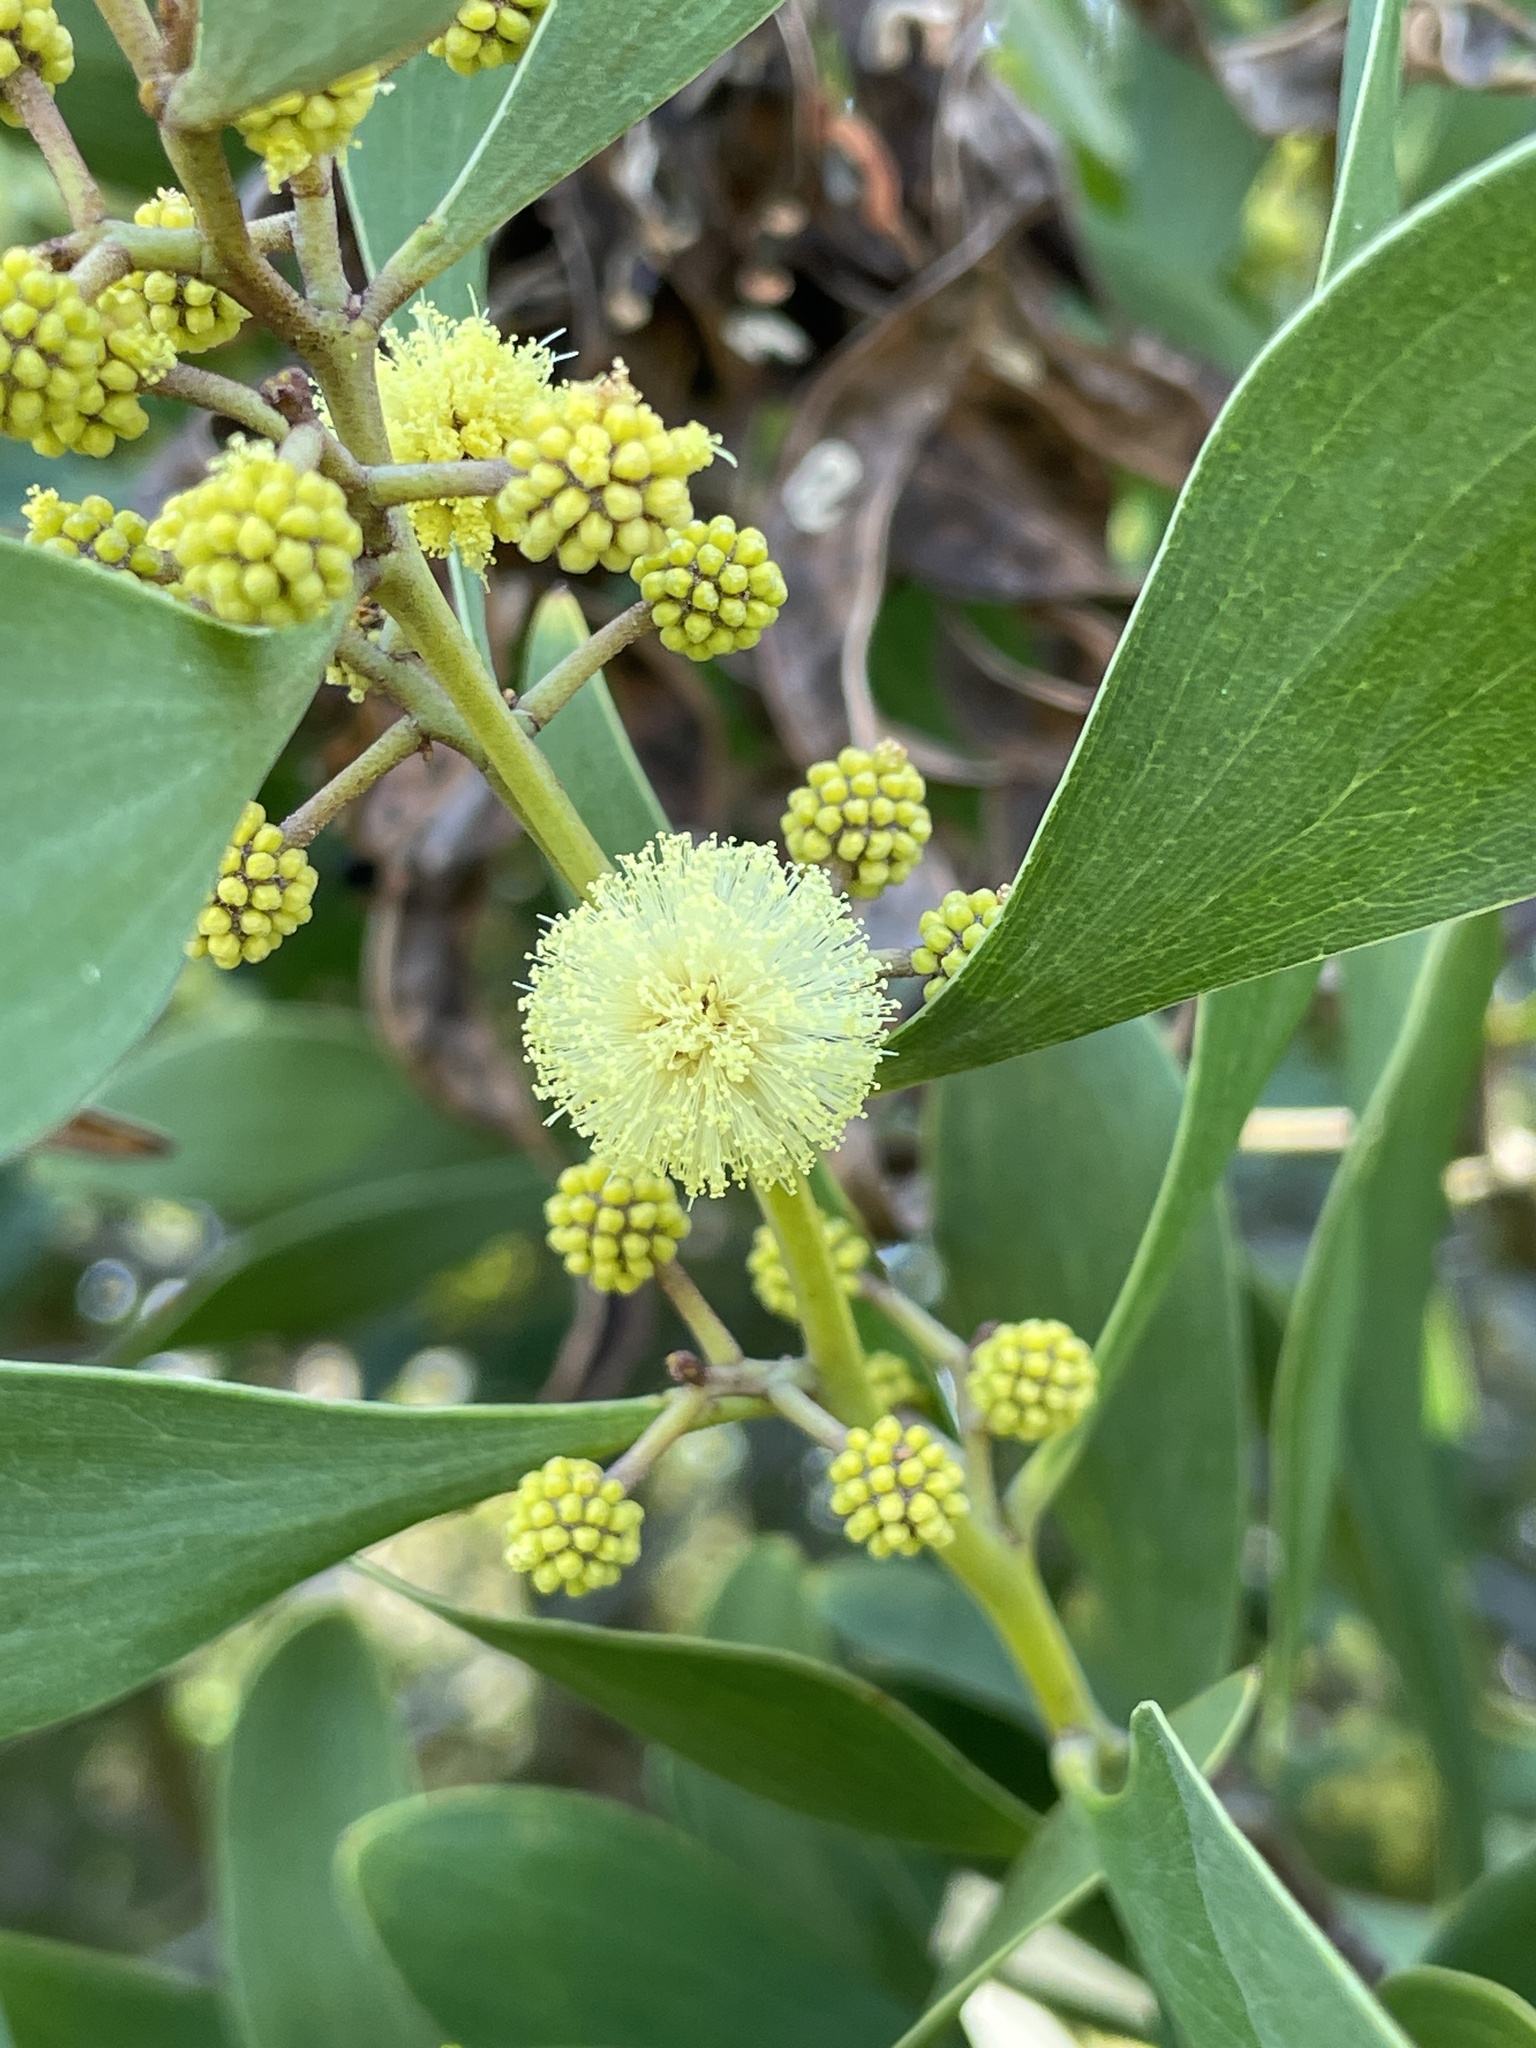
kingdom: Plantae
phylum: Tracheophyta
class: Magnoliopsida
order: Fabales
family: Fabaceae
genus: Acacia
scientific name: Acacia melanoxylon
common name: Blackwood
